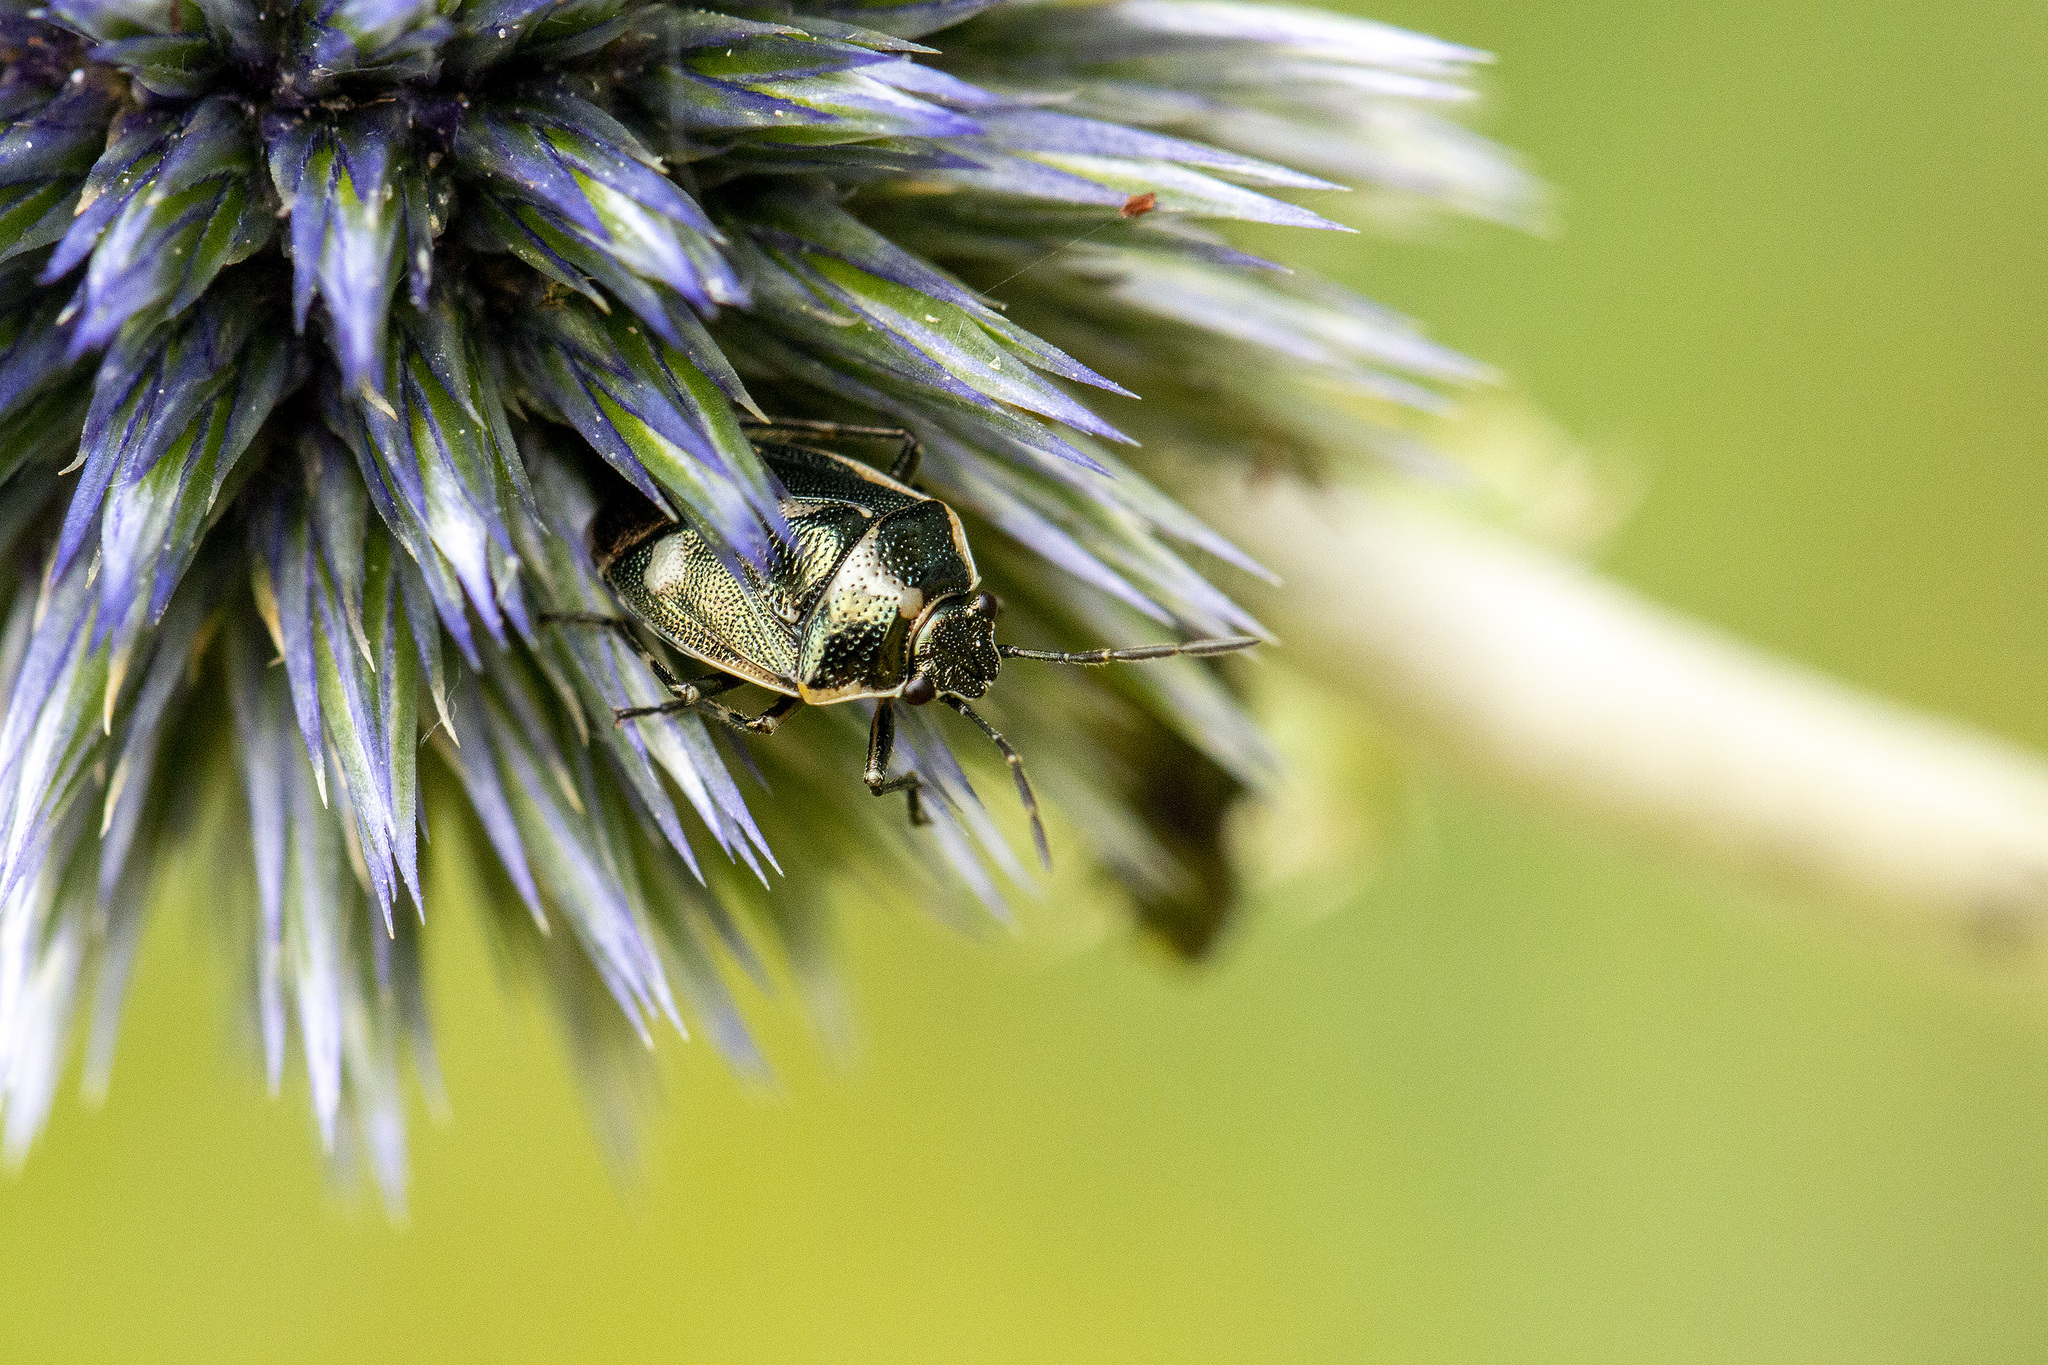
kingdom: Animalia
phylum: Arthropoda
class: Insecta
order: Hemiptera
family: Pentatomidae
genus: Eurydema
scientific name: Eurydema oleracea
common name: Cabbage bug
